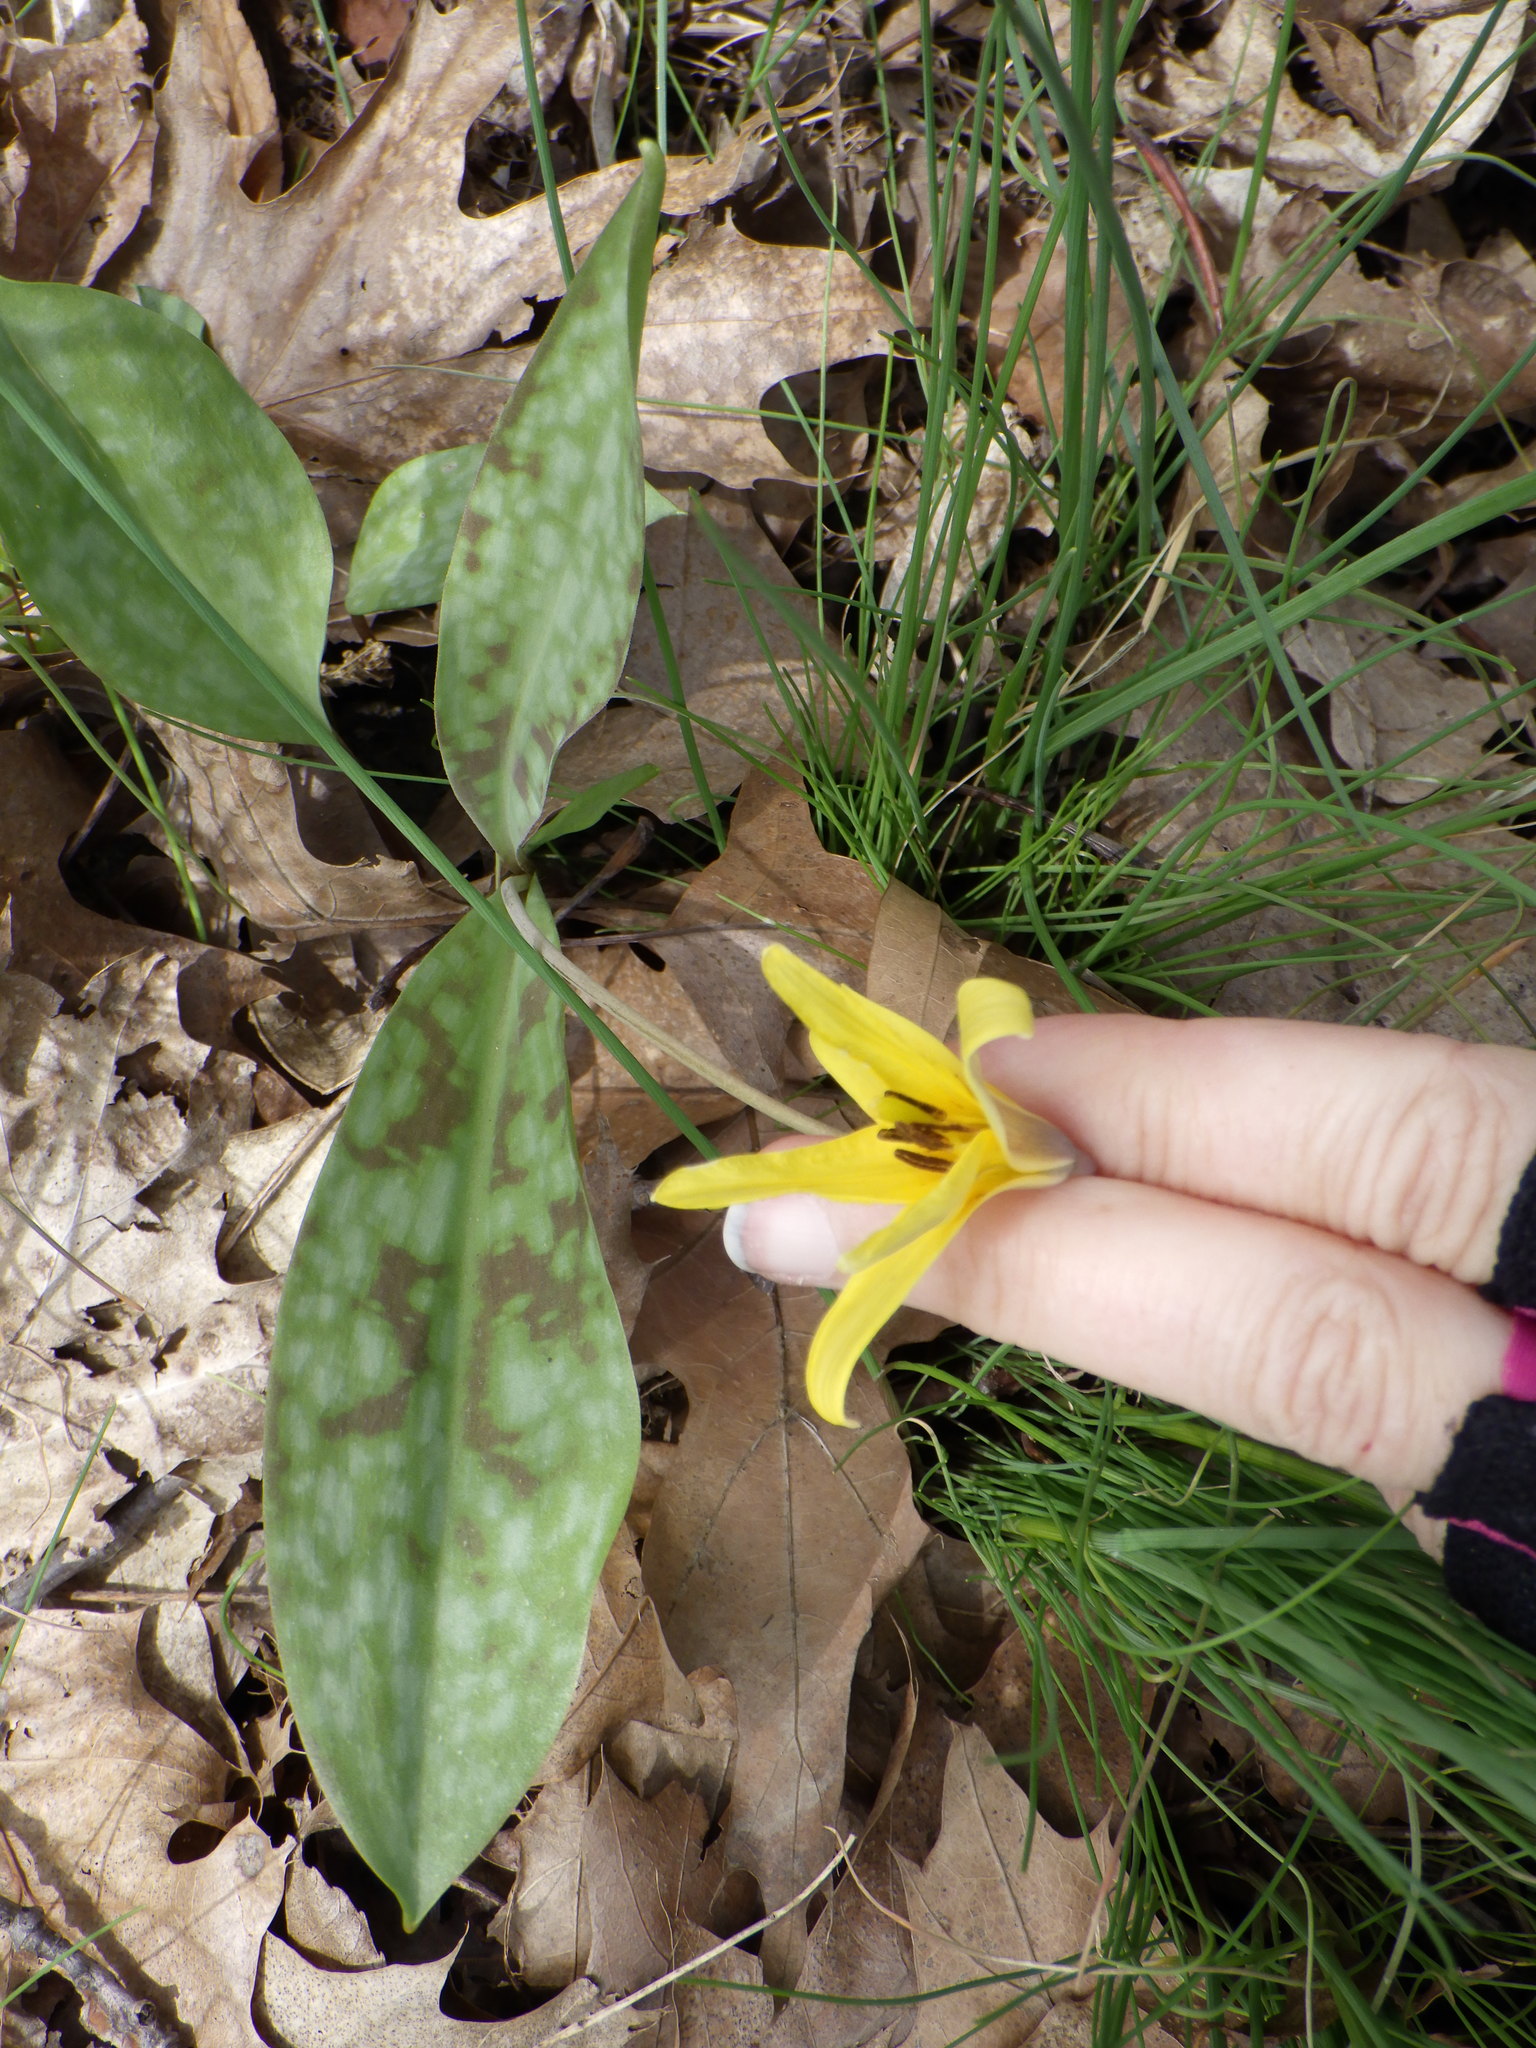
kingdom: Plantae
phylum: Tracheophyta
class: Liliopsida
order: Liliales
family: Liliaceae
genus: Erythronium
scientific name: Erythronium americanum
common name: Yellow adder's-tongue
